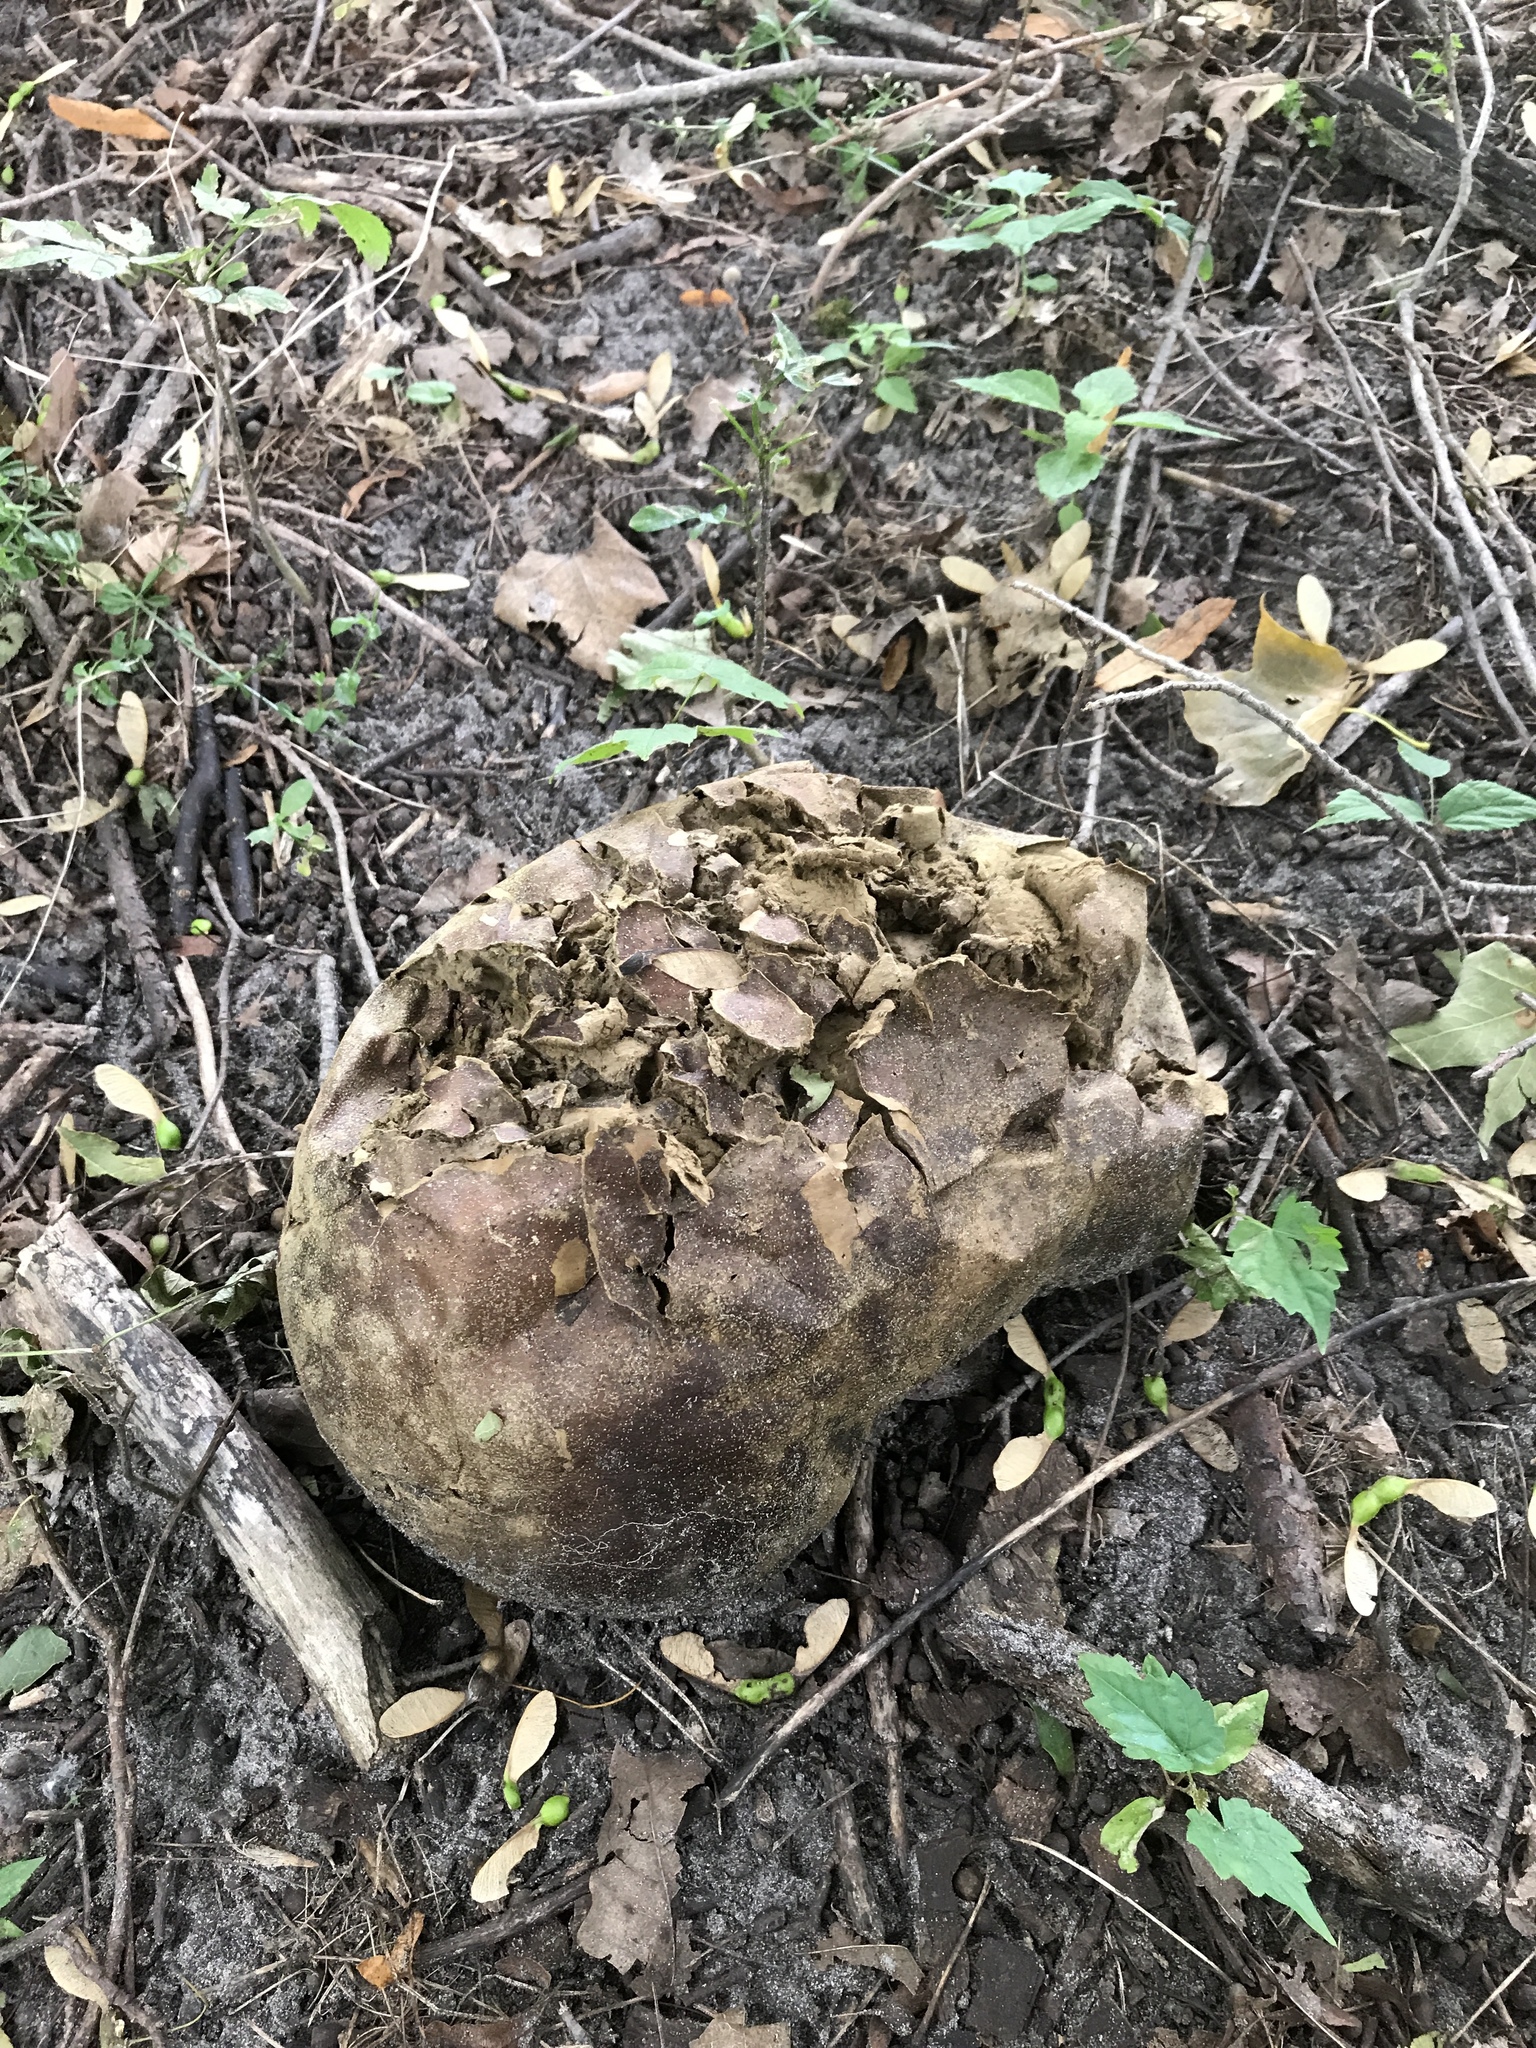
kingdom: Fungi
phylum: Basidiomycota
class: Agaricomycetes
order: Agaricales
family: Lycoperdaceae
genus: Calvatia
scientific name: Calvatia gigantea
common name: Giant puffball
